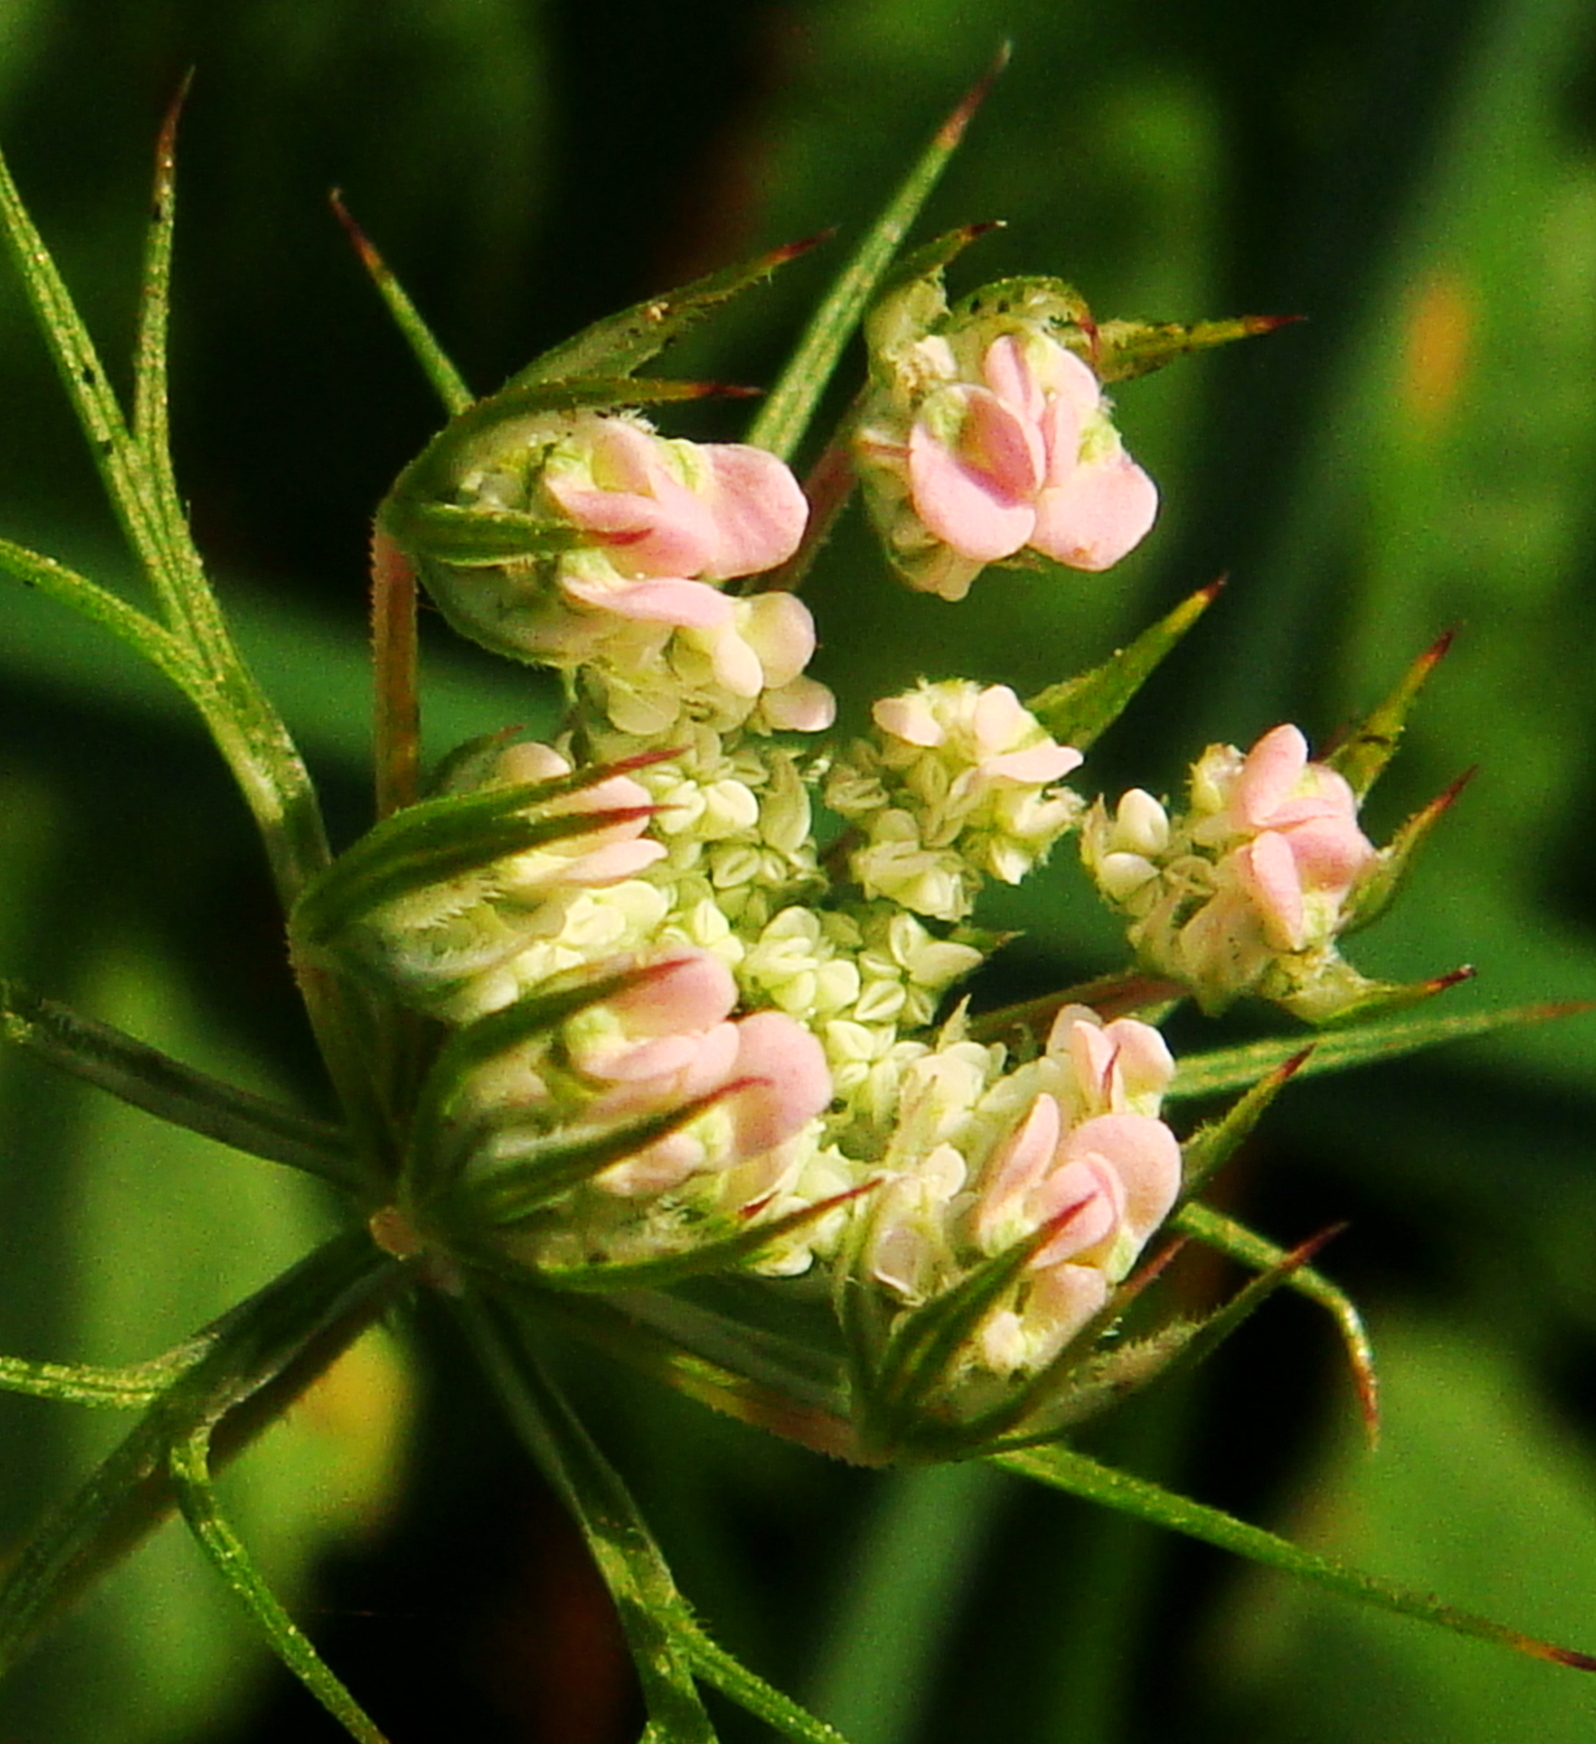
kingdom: Plantae
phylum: Tracheophyta
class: Magnoliopsida
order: Apiales
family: Apiaceae
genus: Daucus
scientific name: Daucus carota
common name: Wild carrot
